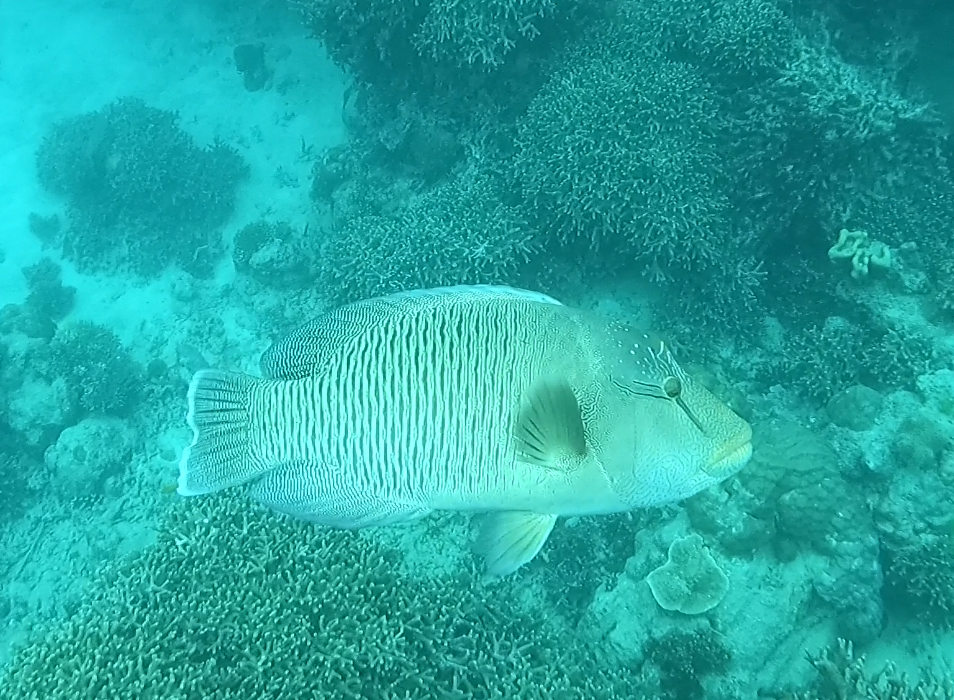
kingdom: Animalia
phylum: Chordata
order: Perciformes
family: Labridae
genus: Cheilinus
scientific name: Cheilinus undulatus
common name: Humphead wrasse
